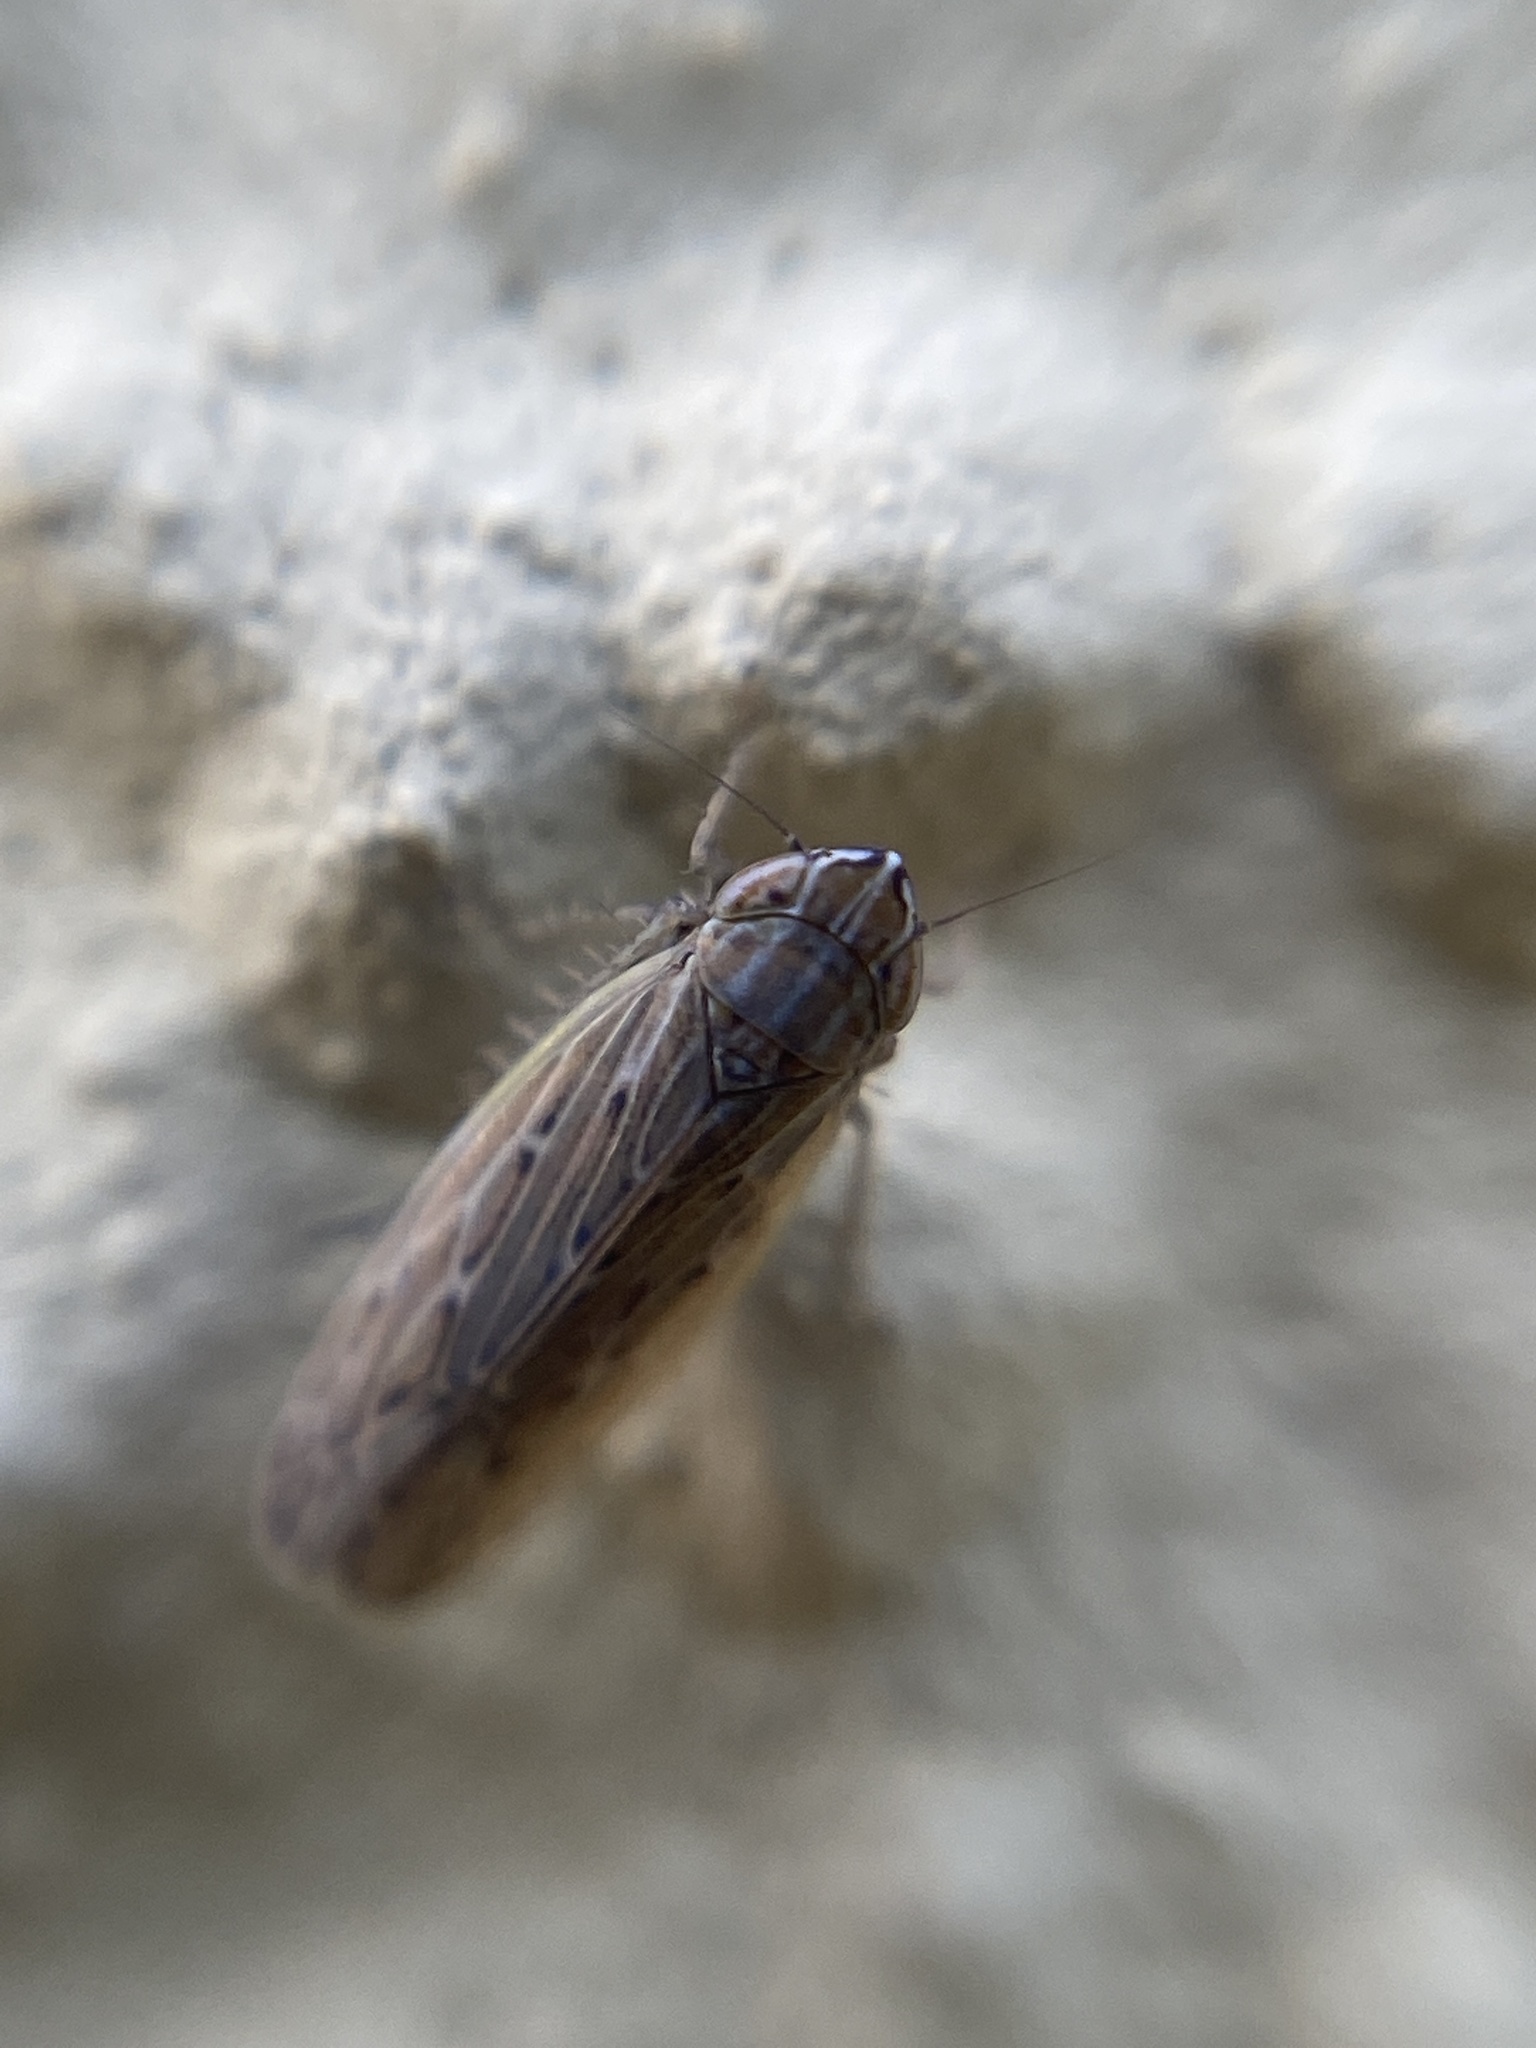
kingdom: Animalia
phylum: Arthropoda
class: Insecta
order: Hemiptera
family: Cicadellidae
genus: Arocephalus
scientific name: Arocephalus longiceps
